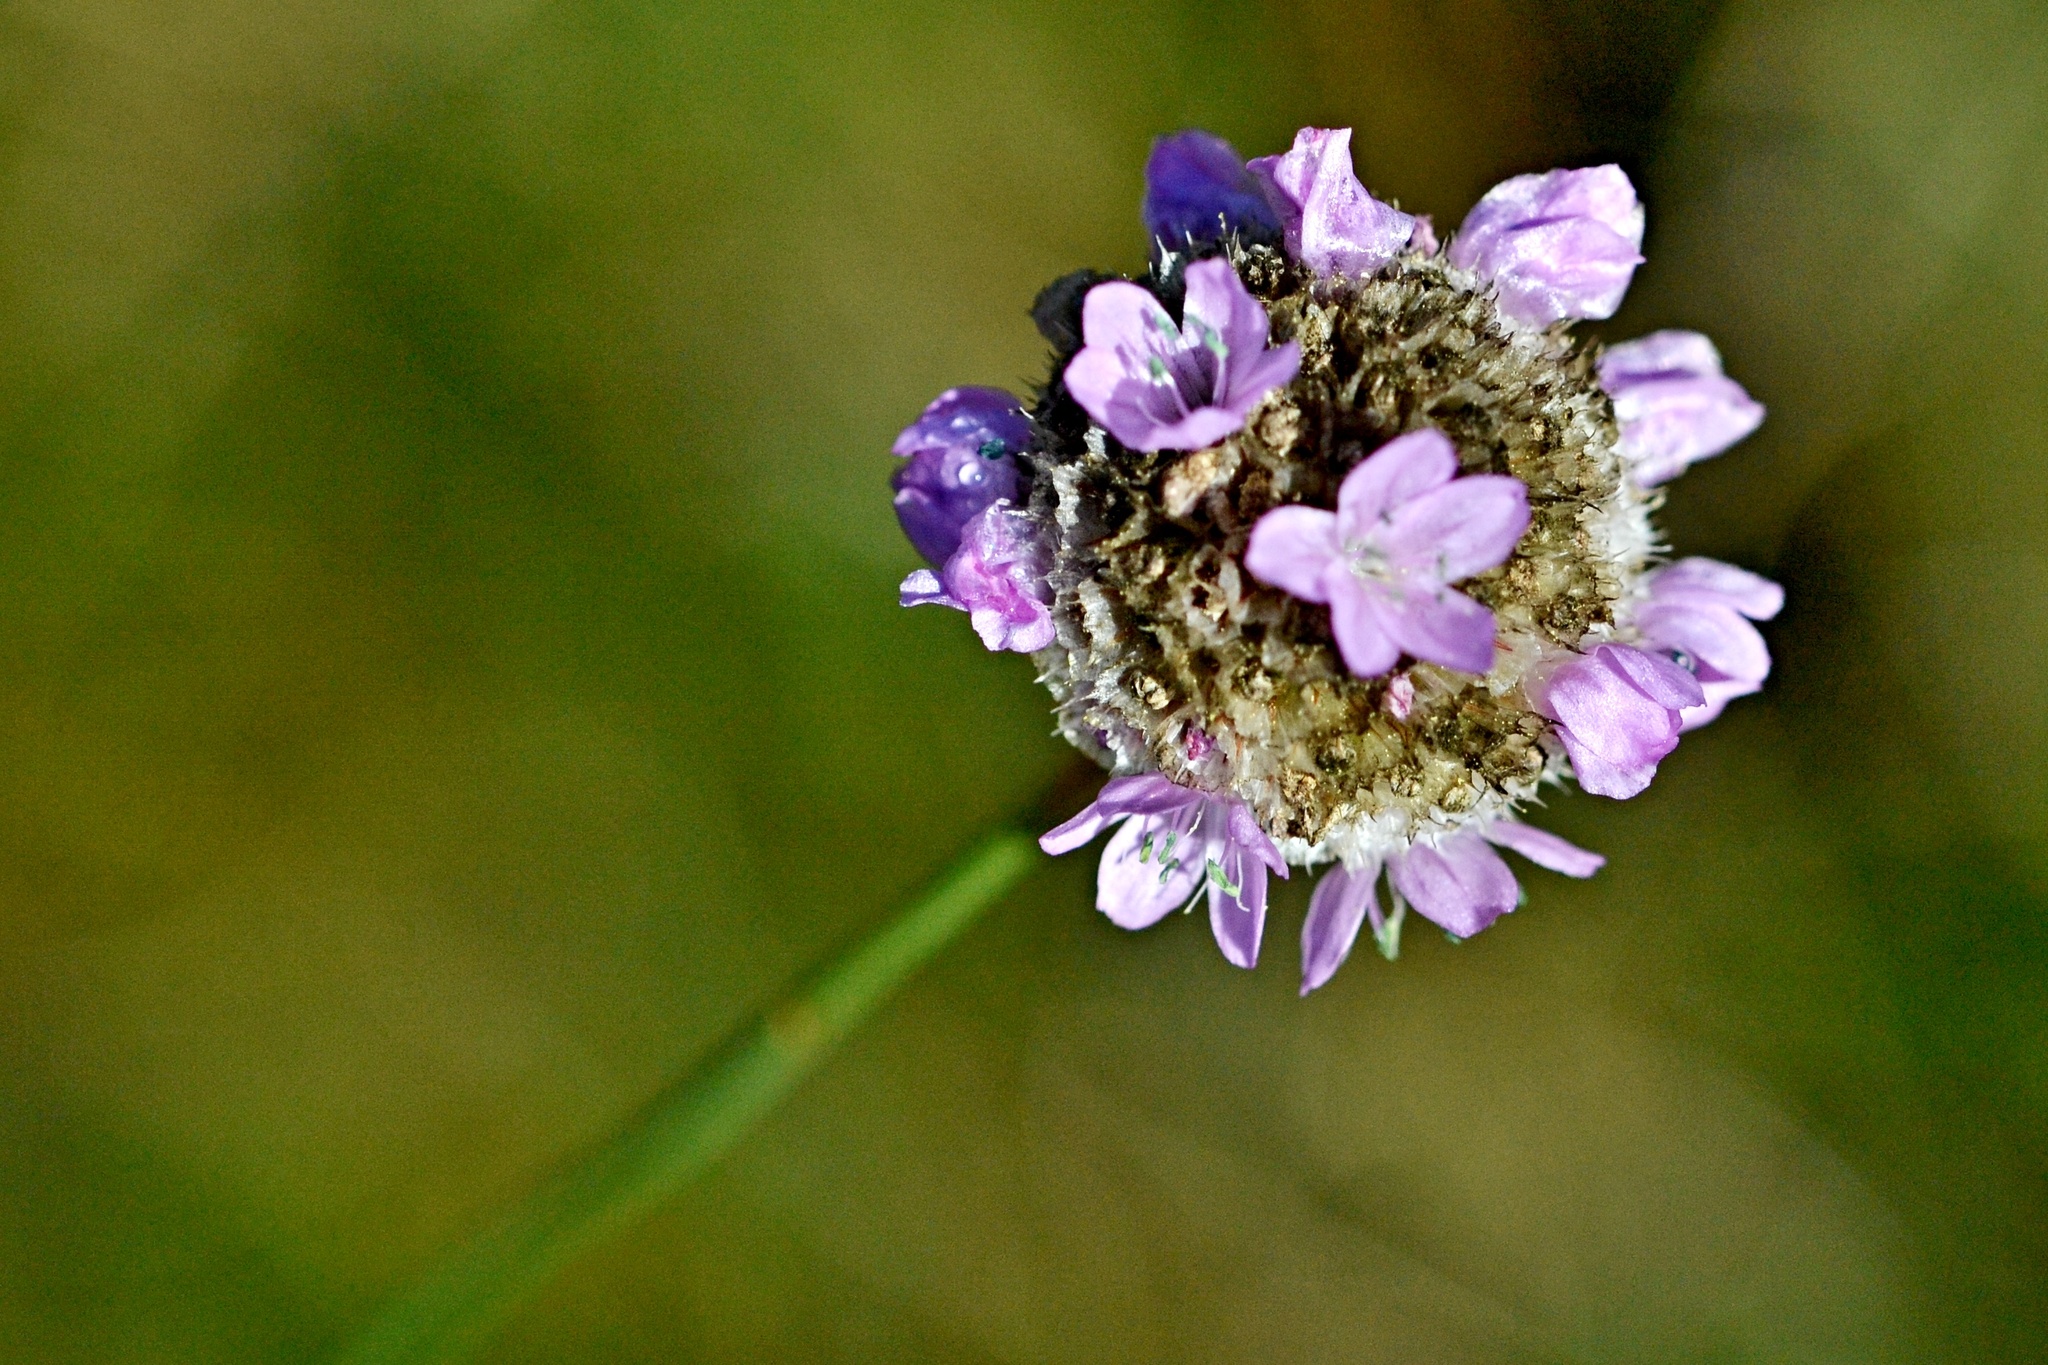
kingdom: Plantae
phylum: Tracheophyta
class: Magnoliopsida
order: Caryophyllales
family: Plumbaginaceae
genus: Armeria
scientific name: Armeria maritima
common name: Thrift
